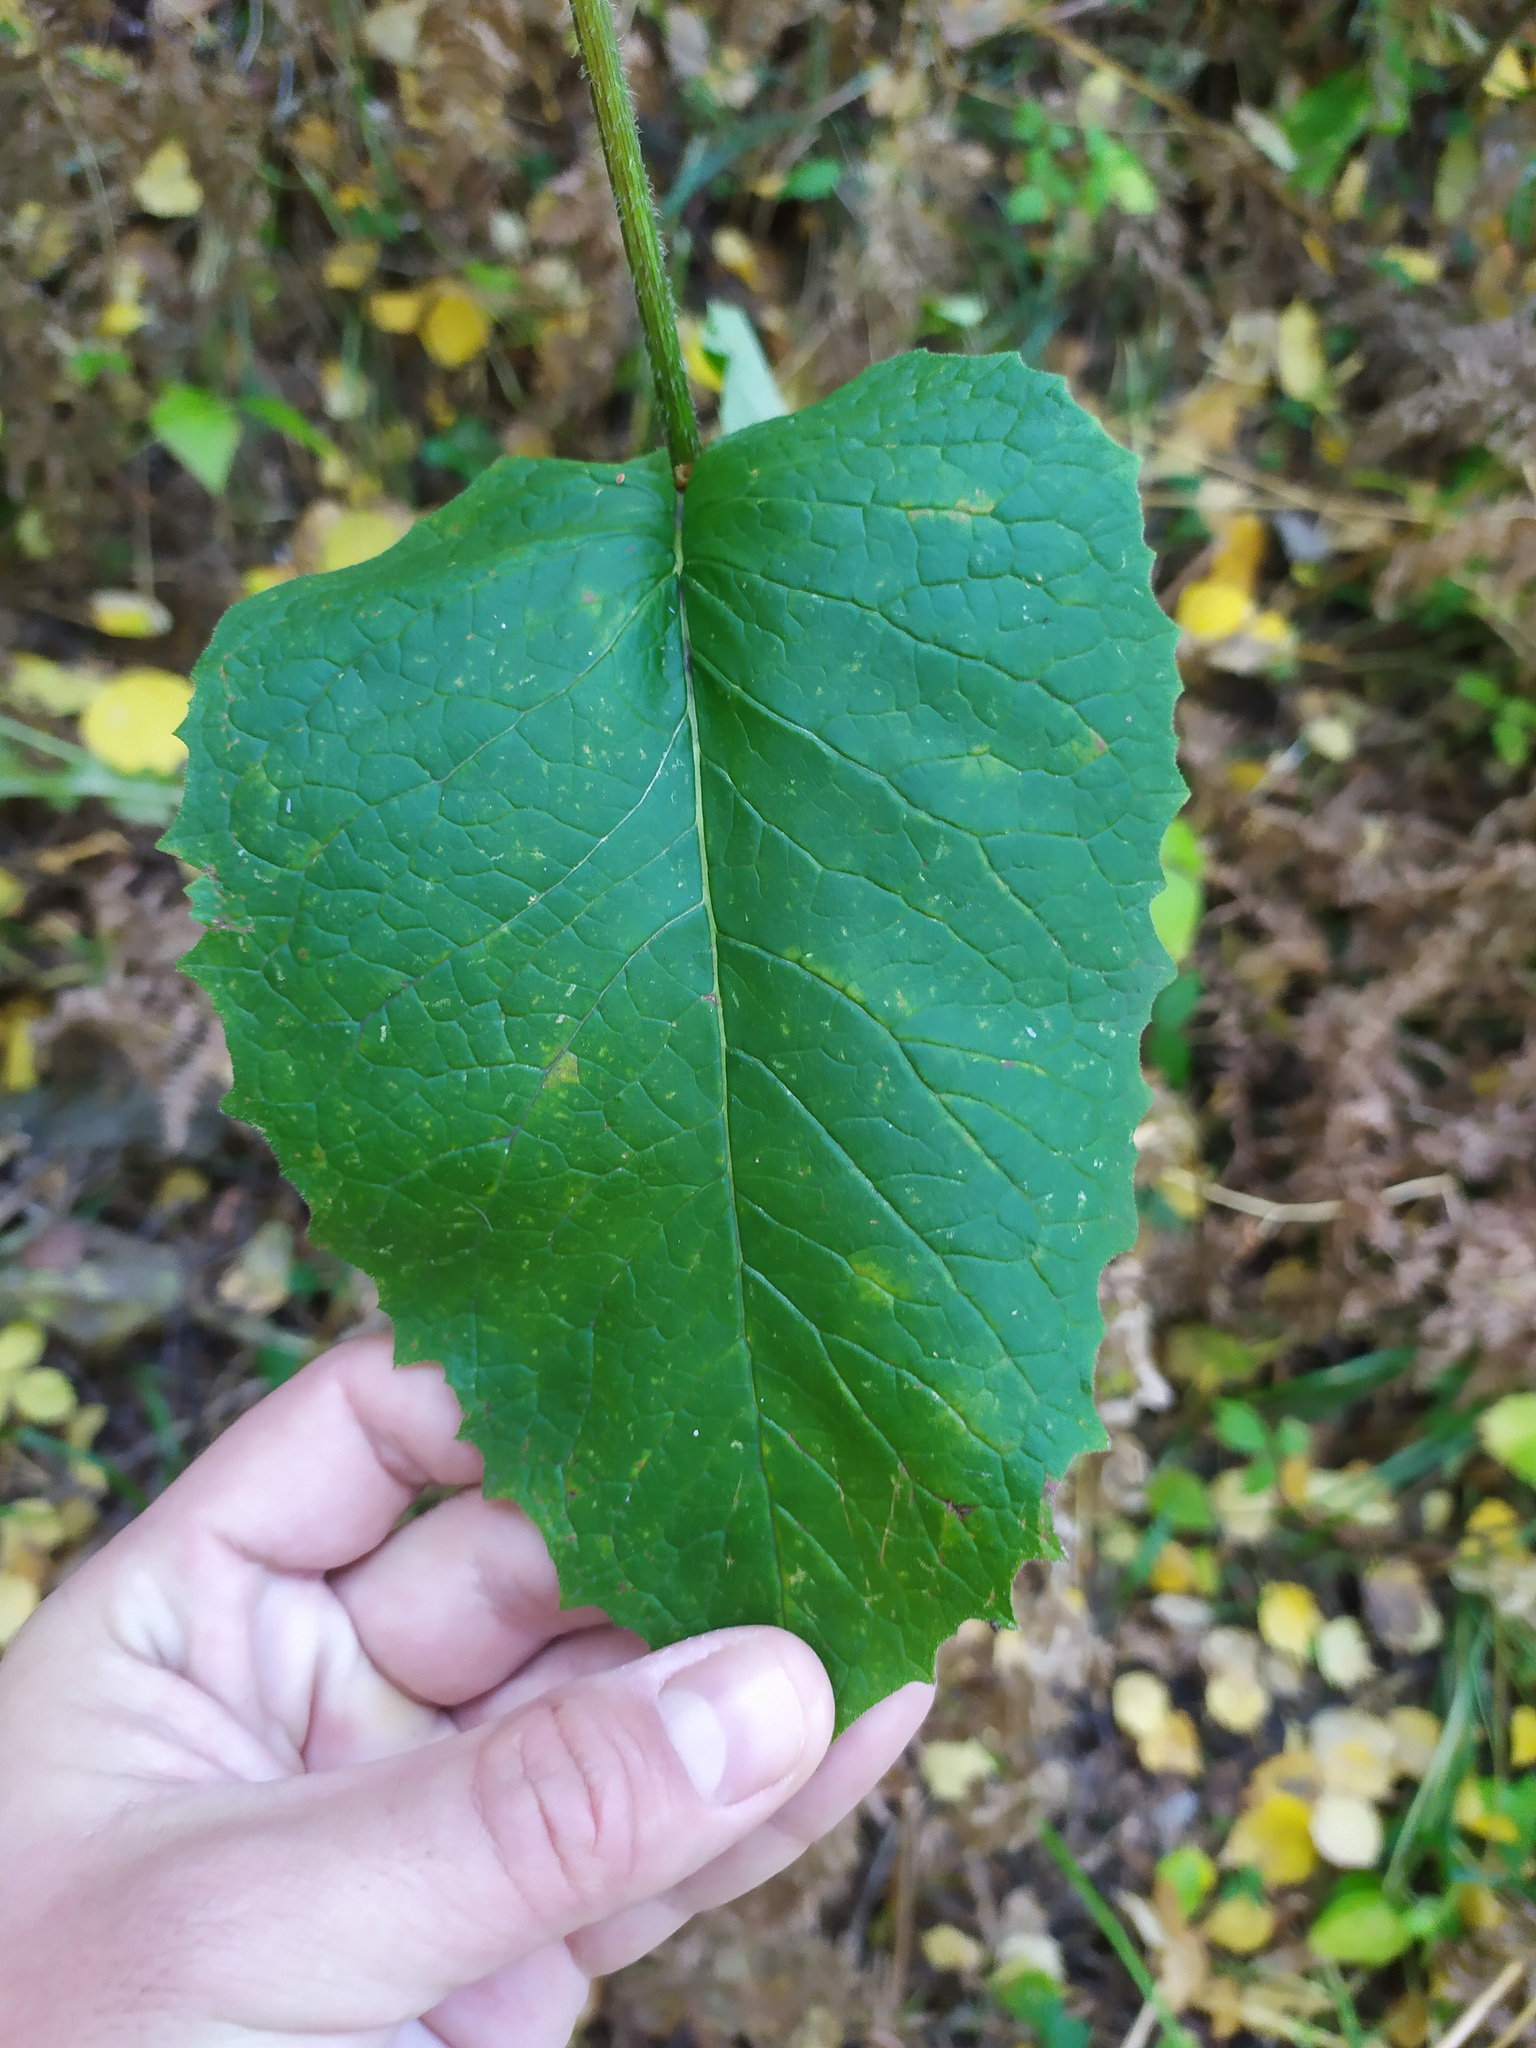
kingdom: Plantae
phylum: Tracheophyta
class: Magnoliopsida
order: Asterales
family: Asteraceae
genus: Lactuca
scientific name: Lactuca macrophylla
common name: Common blue-sow-thistle
